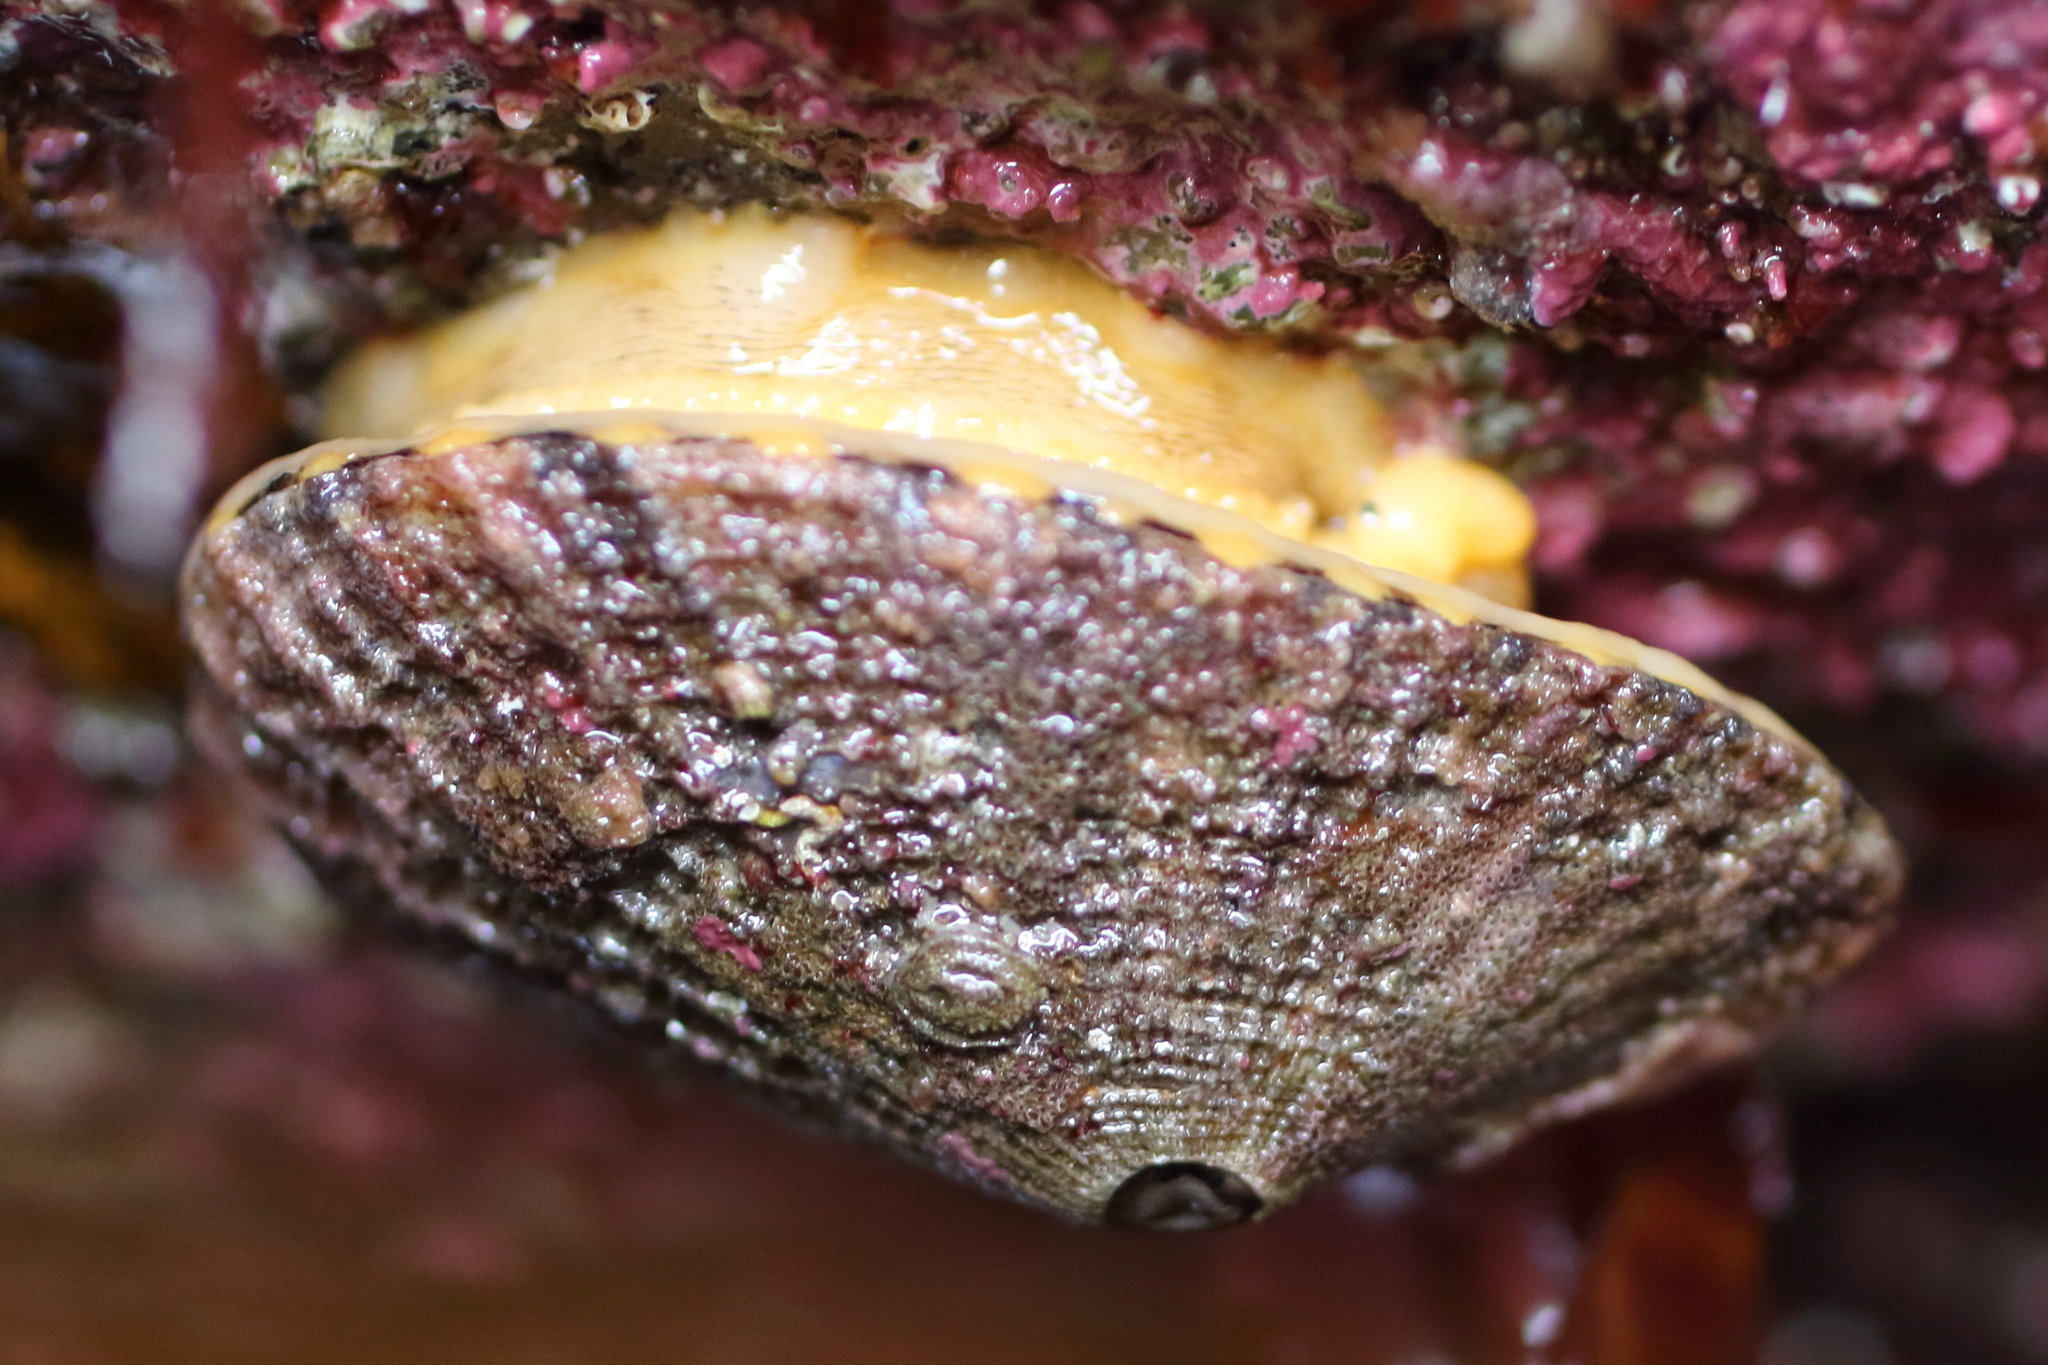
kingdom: Animalia
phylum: Mollusca
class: Gastropoda
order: Lepetellida
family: Fissurellidae
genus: Diodora
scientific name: Diodora aspera
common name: Rough keyhole limpet
